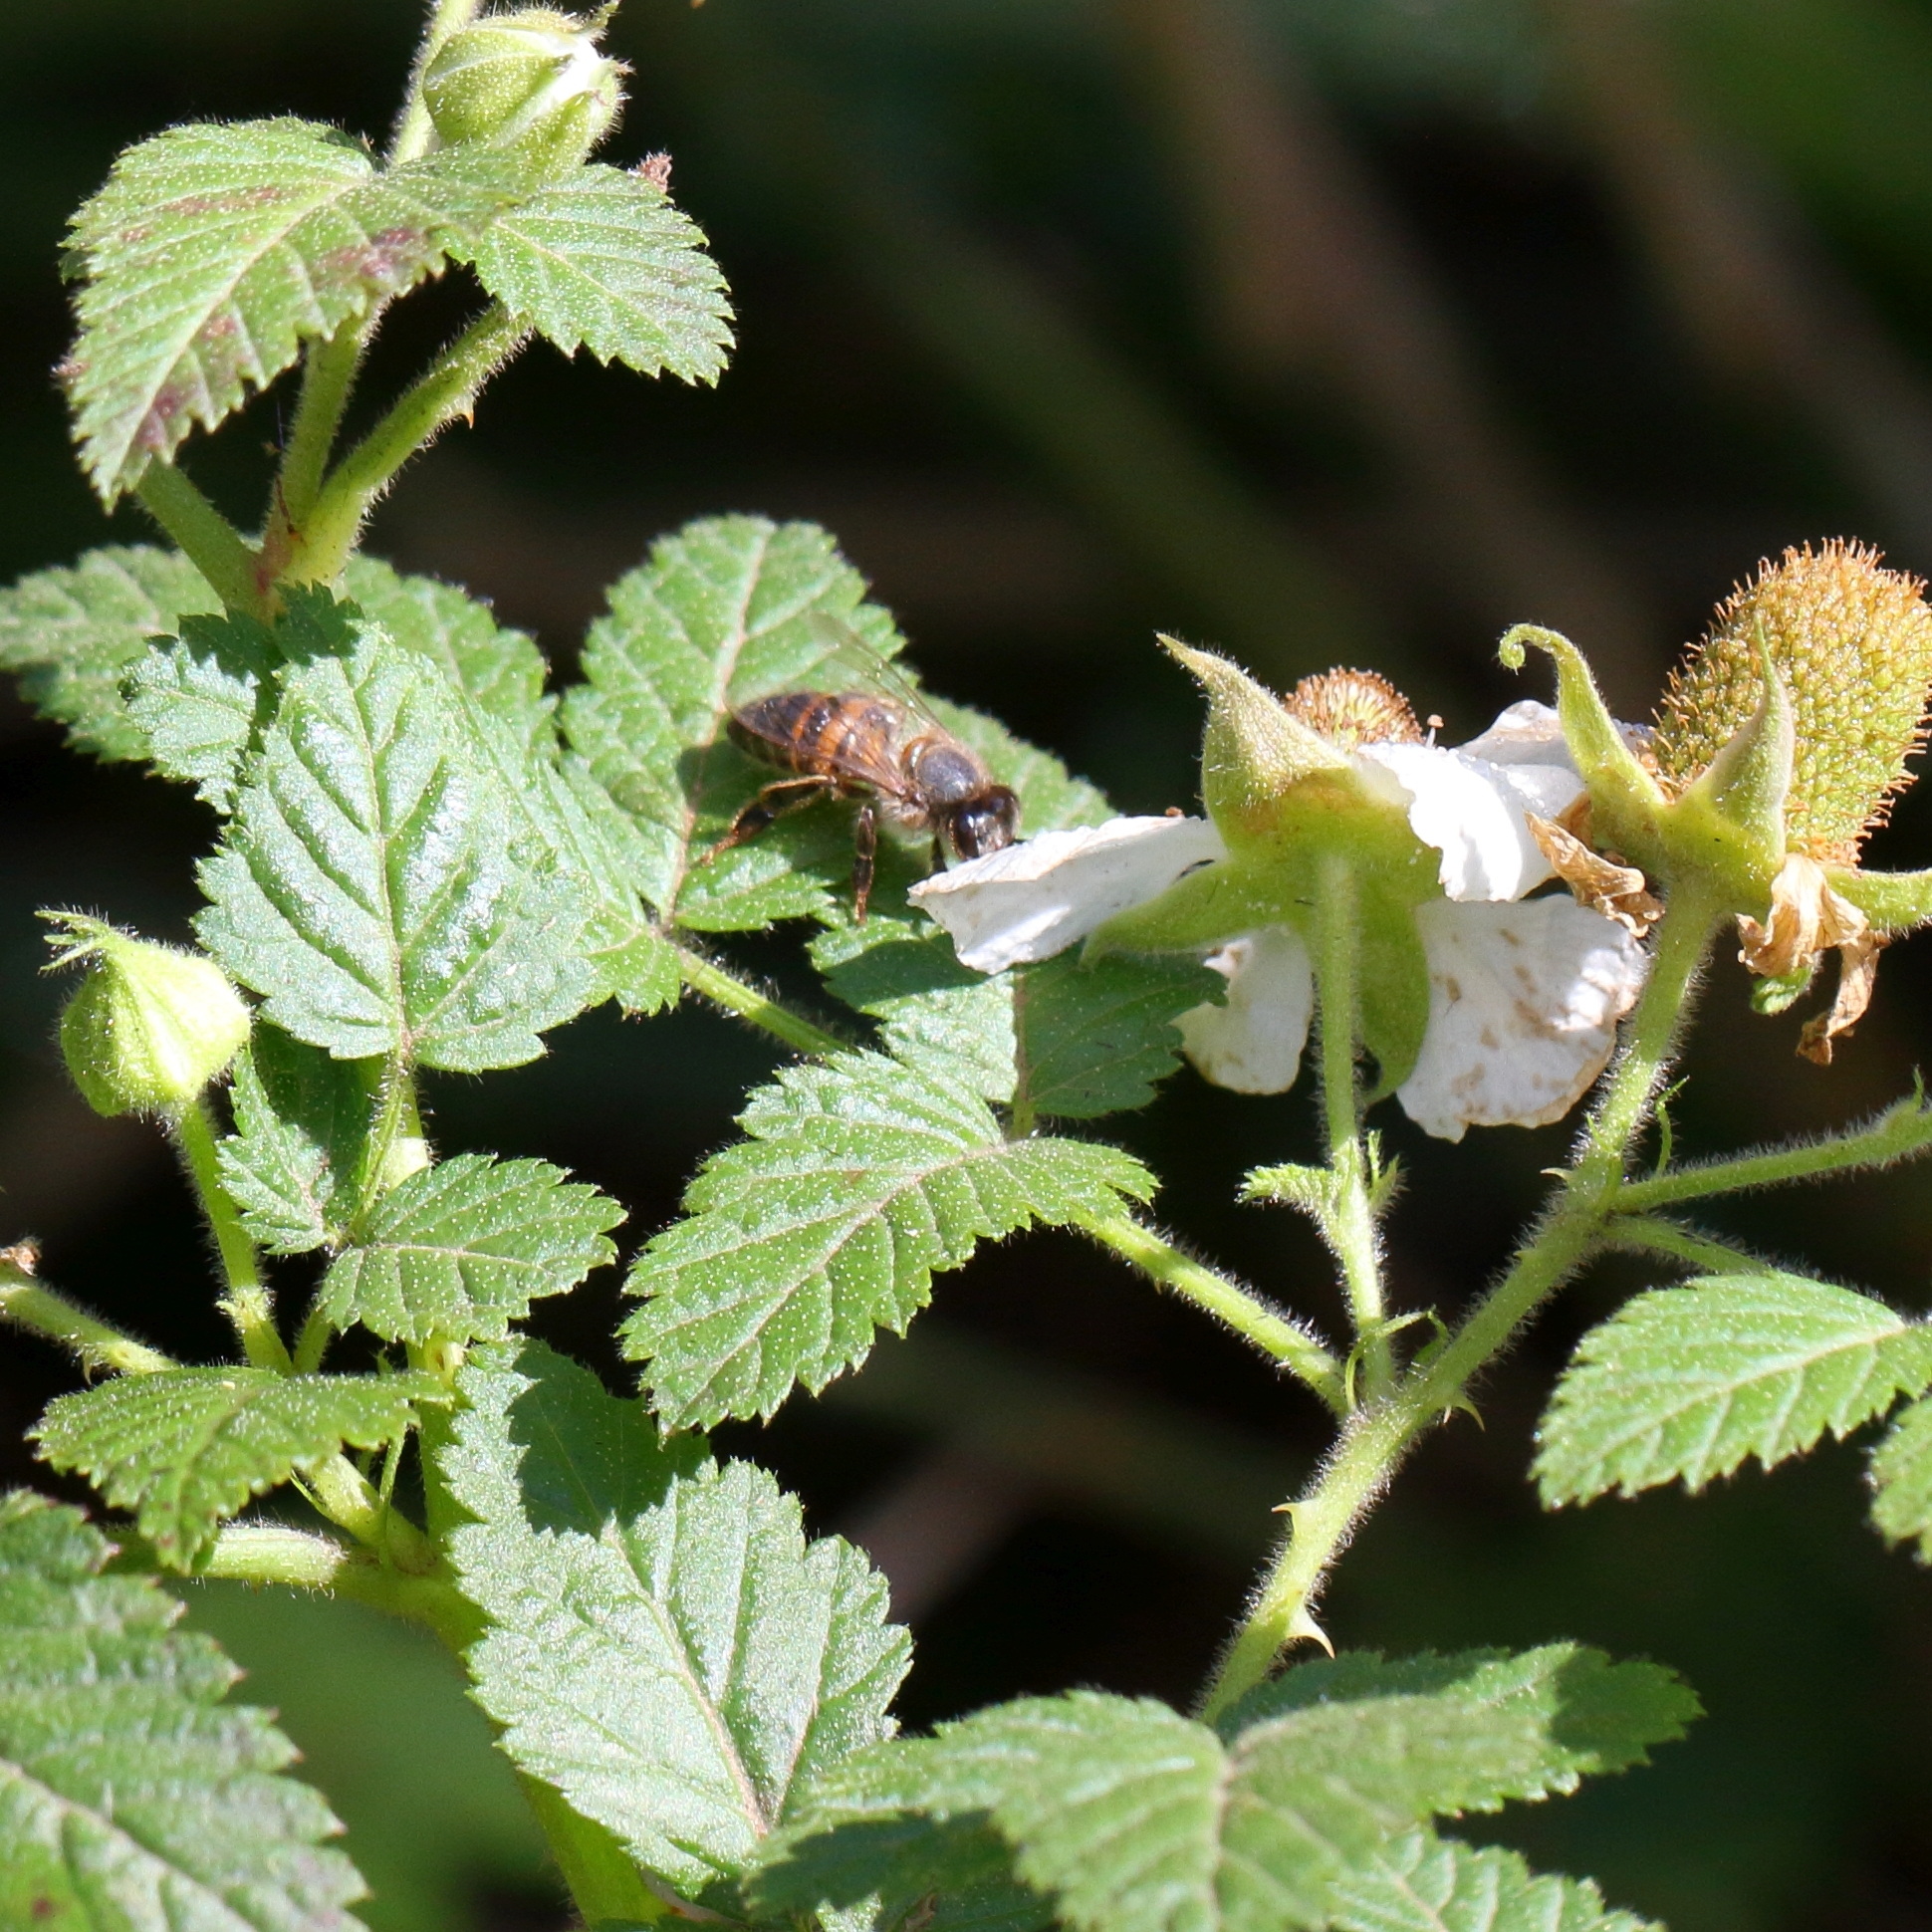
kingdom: Plantae
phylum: Tracheophyta
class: Magnoliopsida
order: Rosales
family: Rosaceae
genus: Rubus
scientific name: Rubus rosifolius
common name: Roseleaf raspberry
